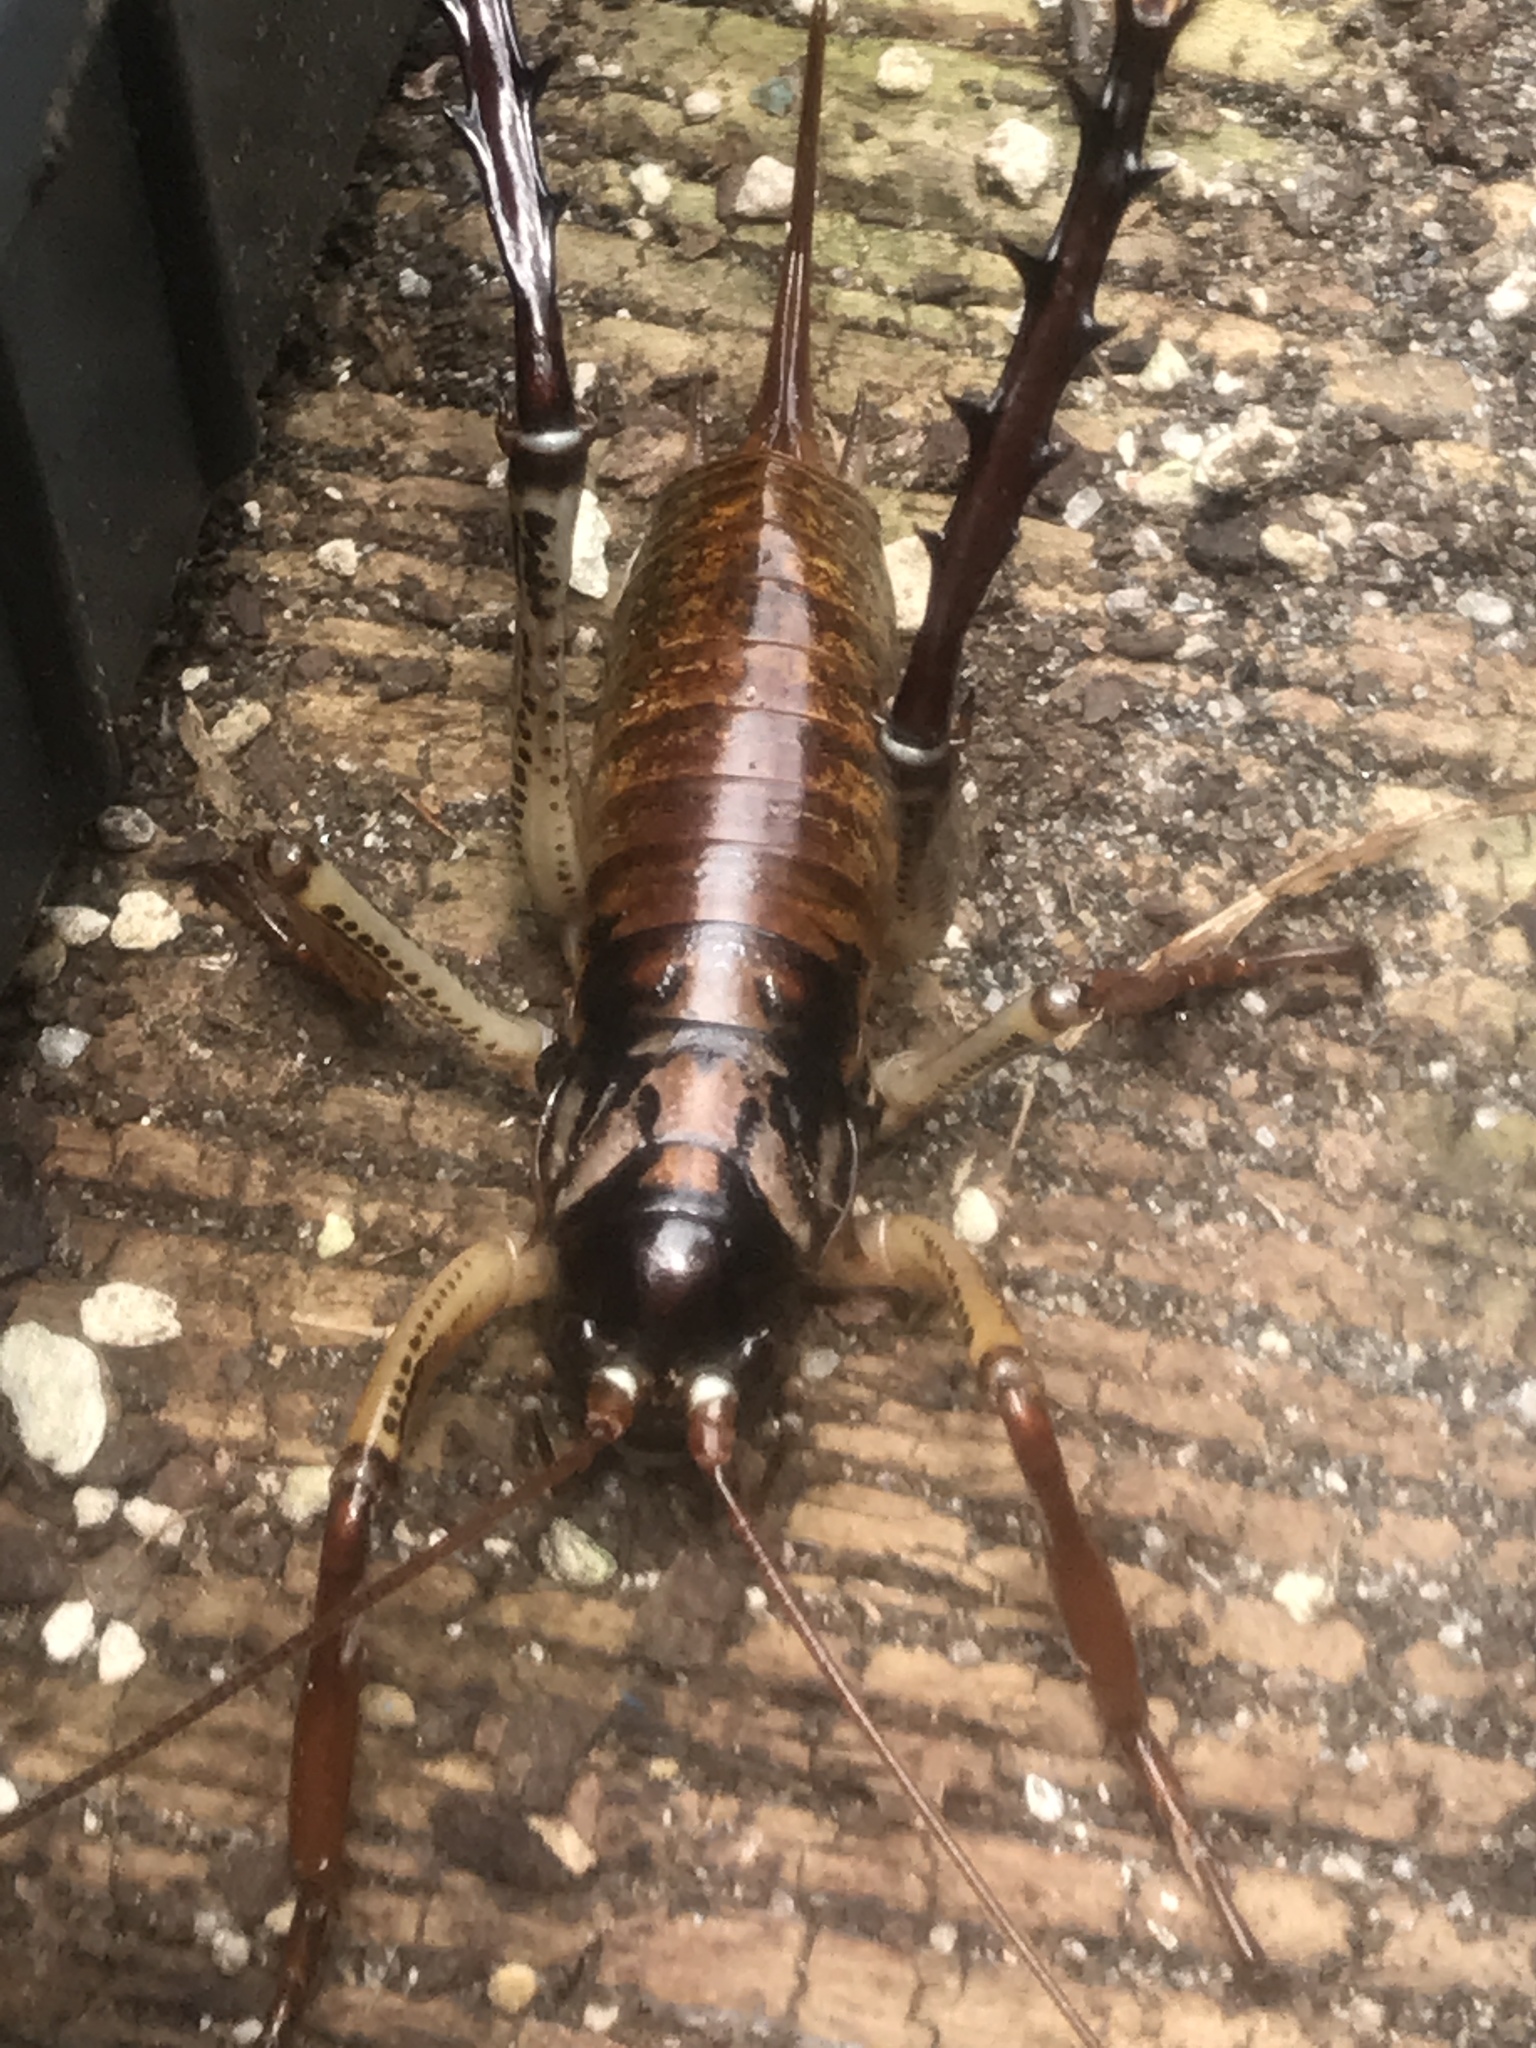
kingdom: Animalia
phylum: Arthropoda
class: Insecta
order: Orthoptera
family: Anostostomatidae
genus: Hemideina
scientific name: Hemideina thoracica
